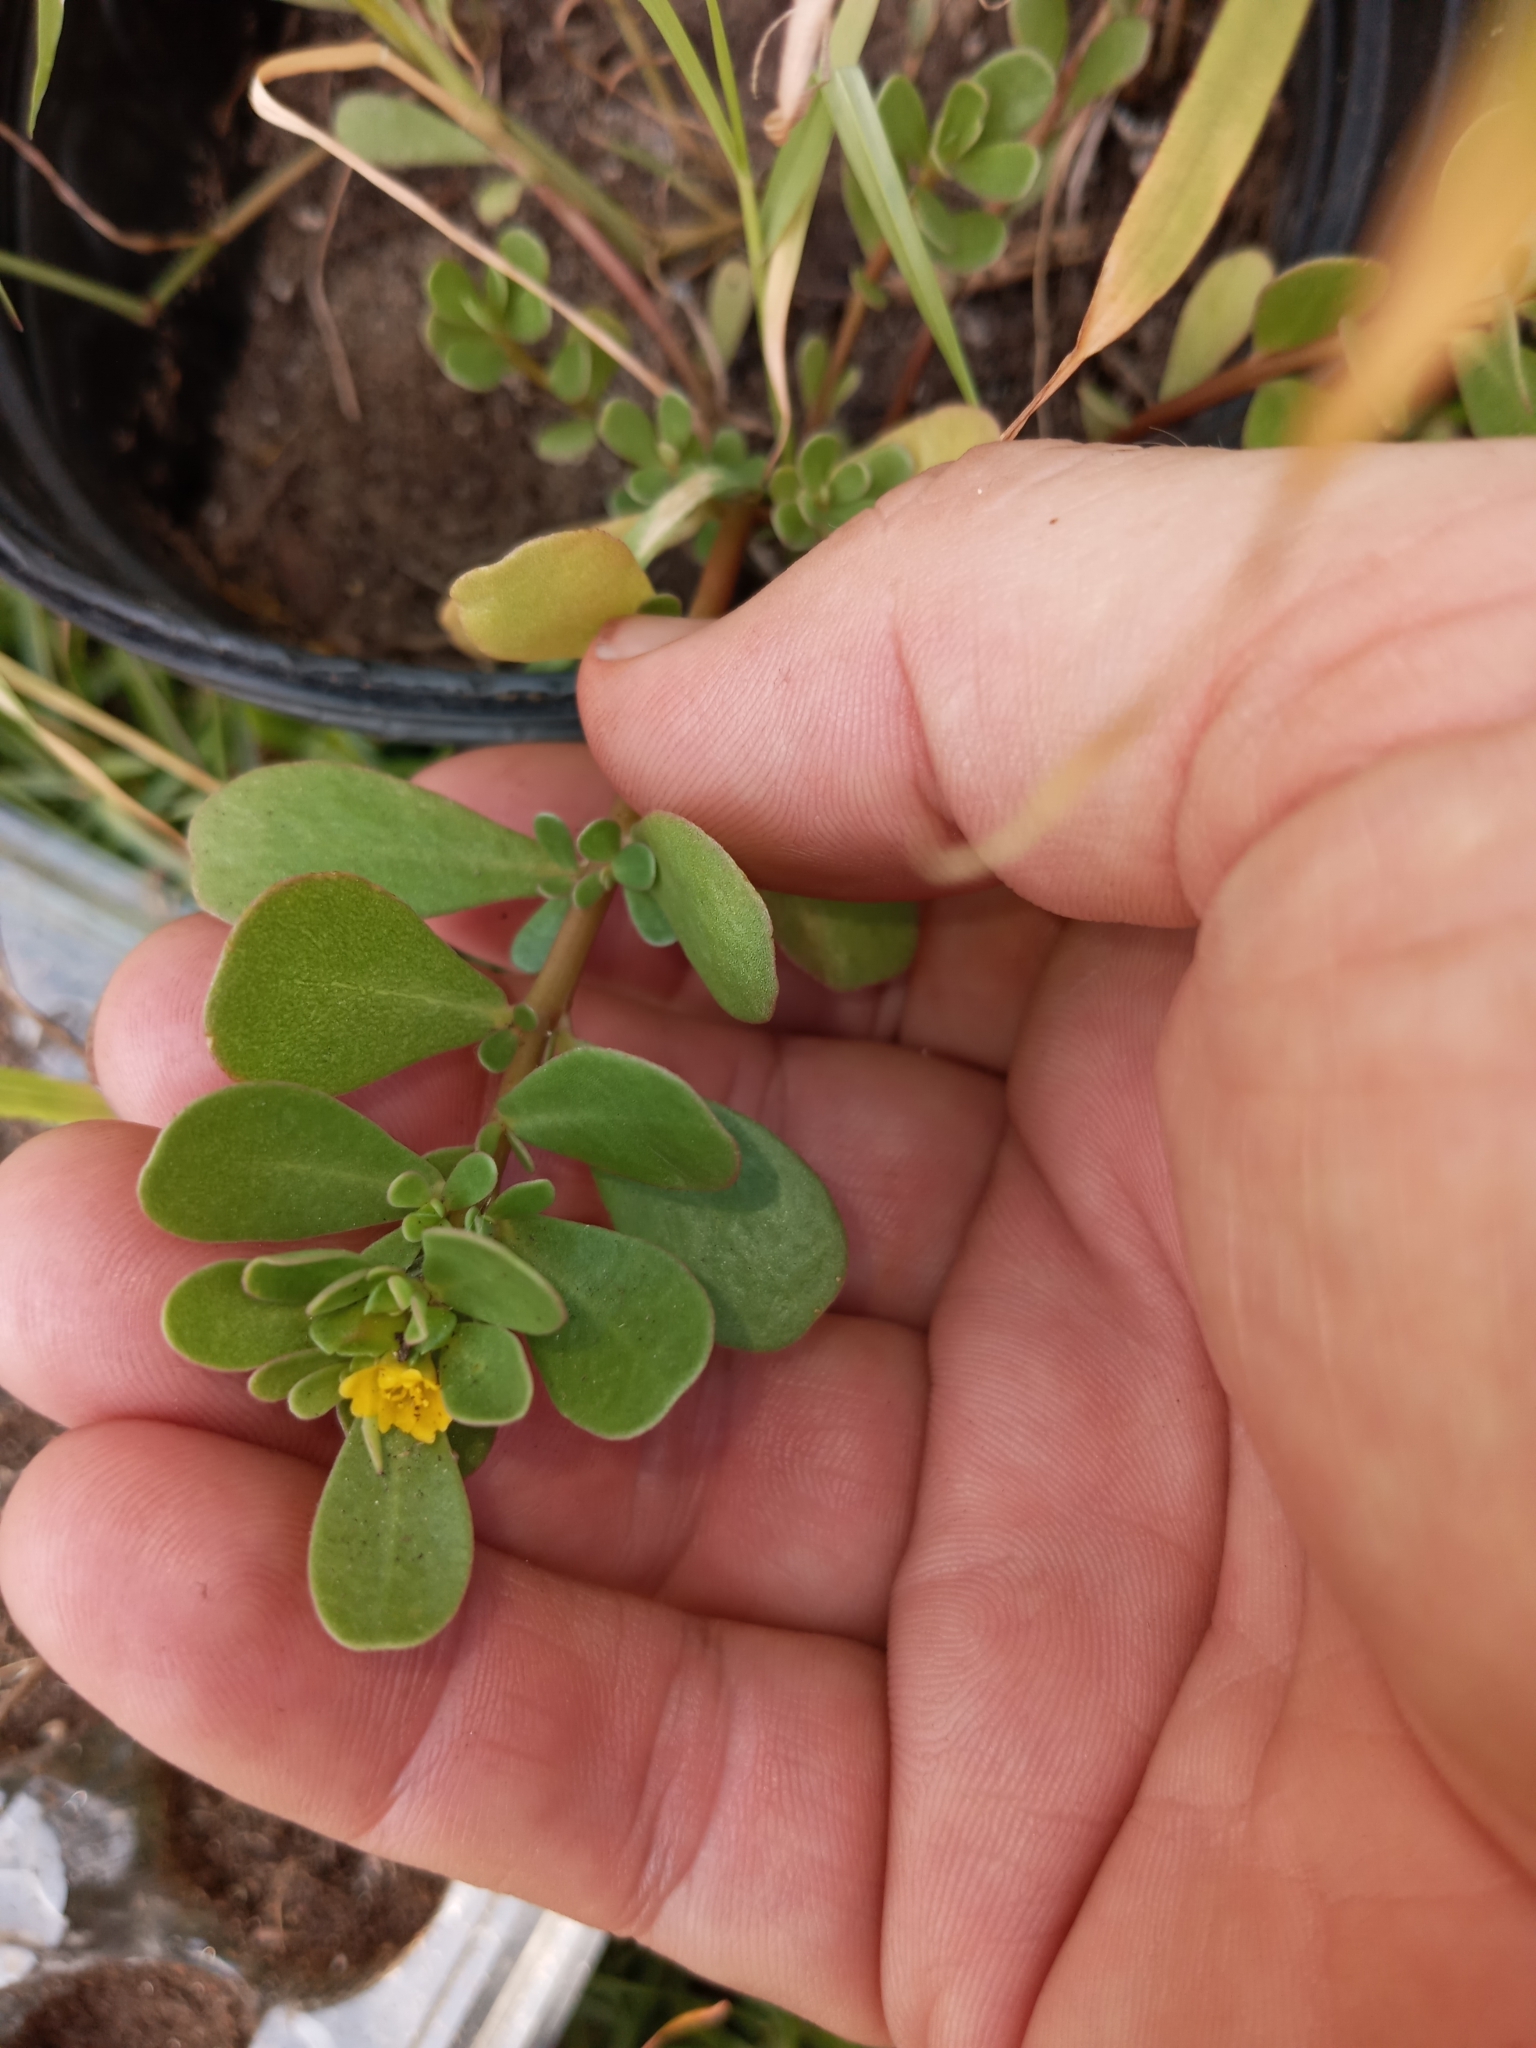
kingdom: Plantae
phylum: Tracheophyta
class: Magnoliopsida
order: Caryophyllales
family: Portulacaceae
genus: Portulaca
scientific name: Portulaca oleracea
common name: Common purslane
